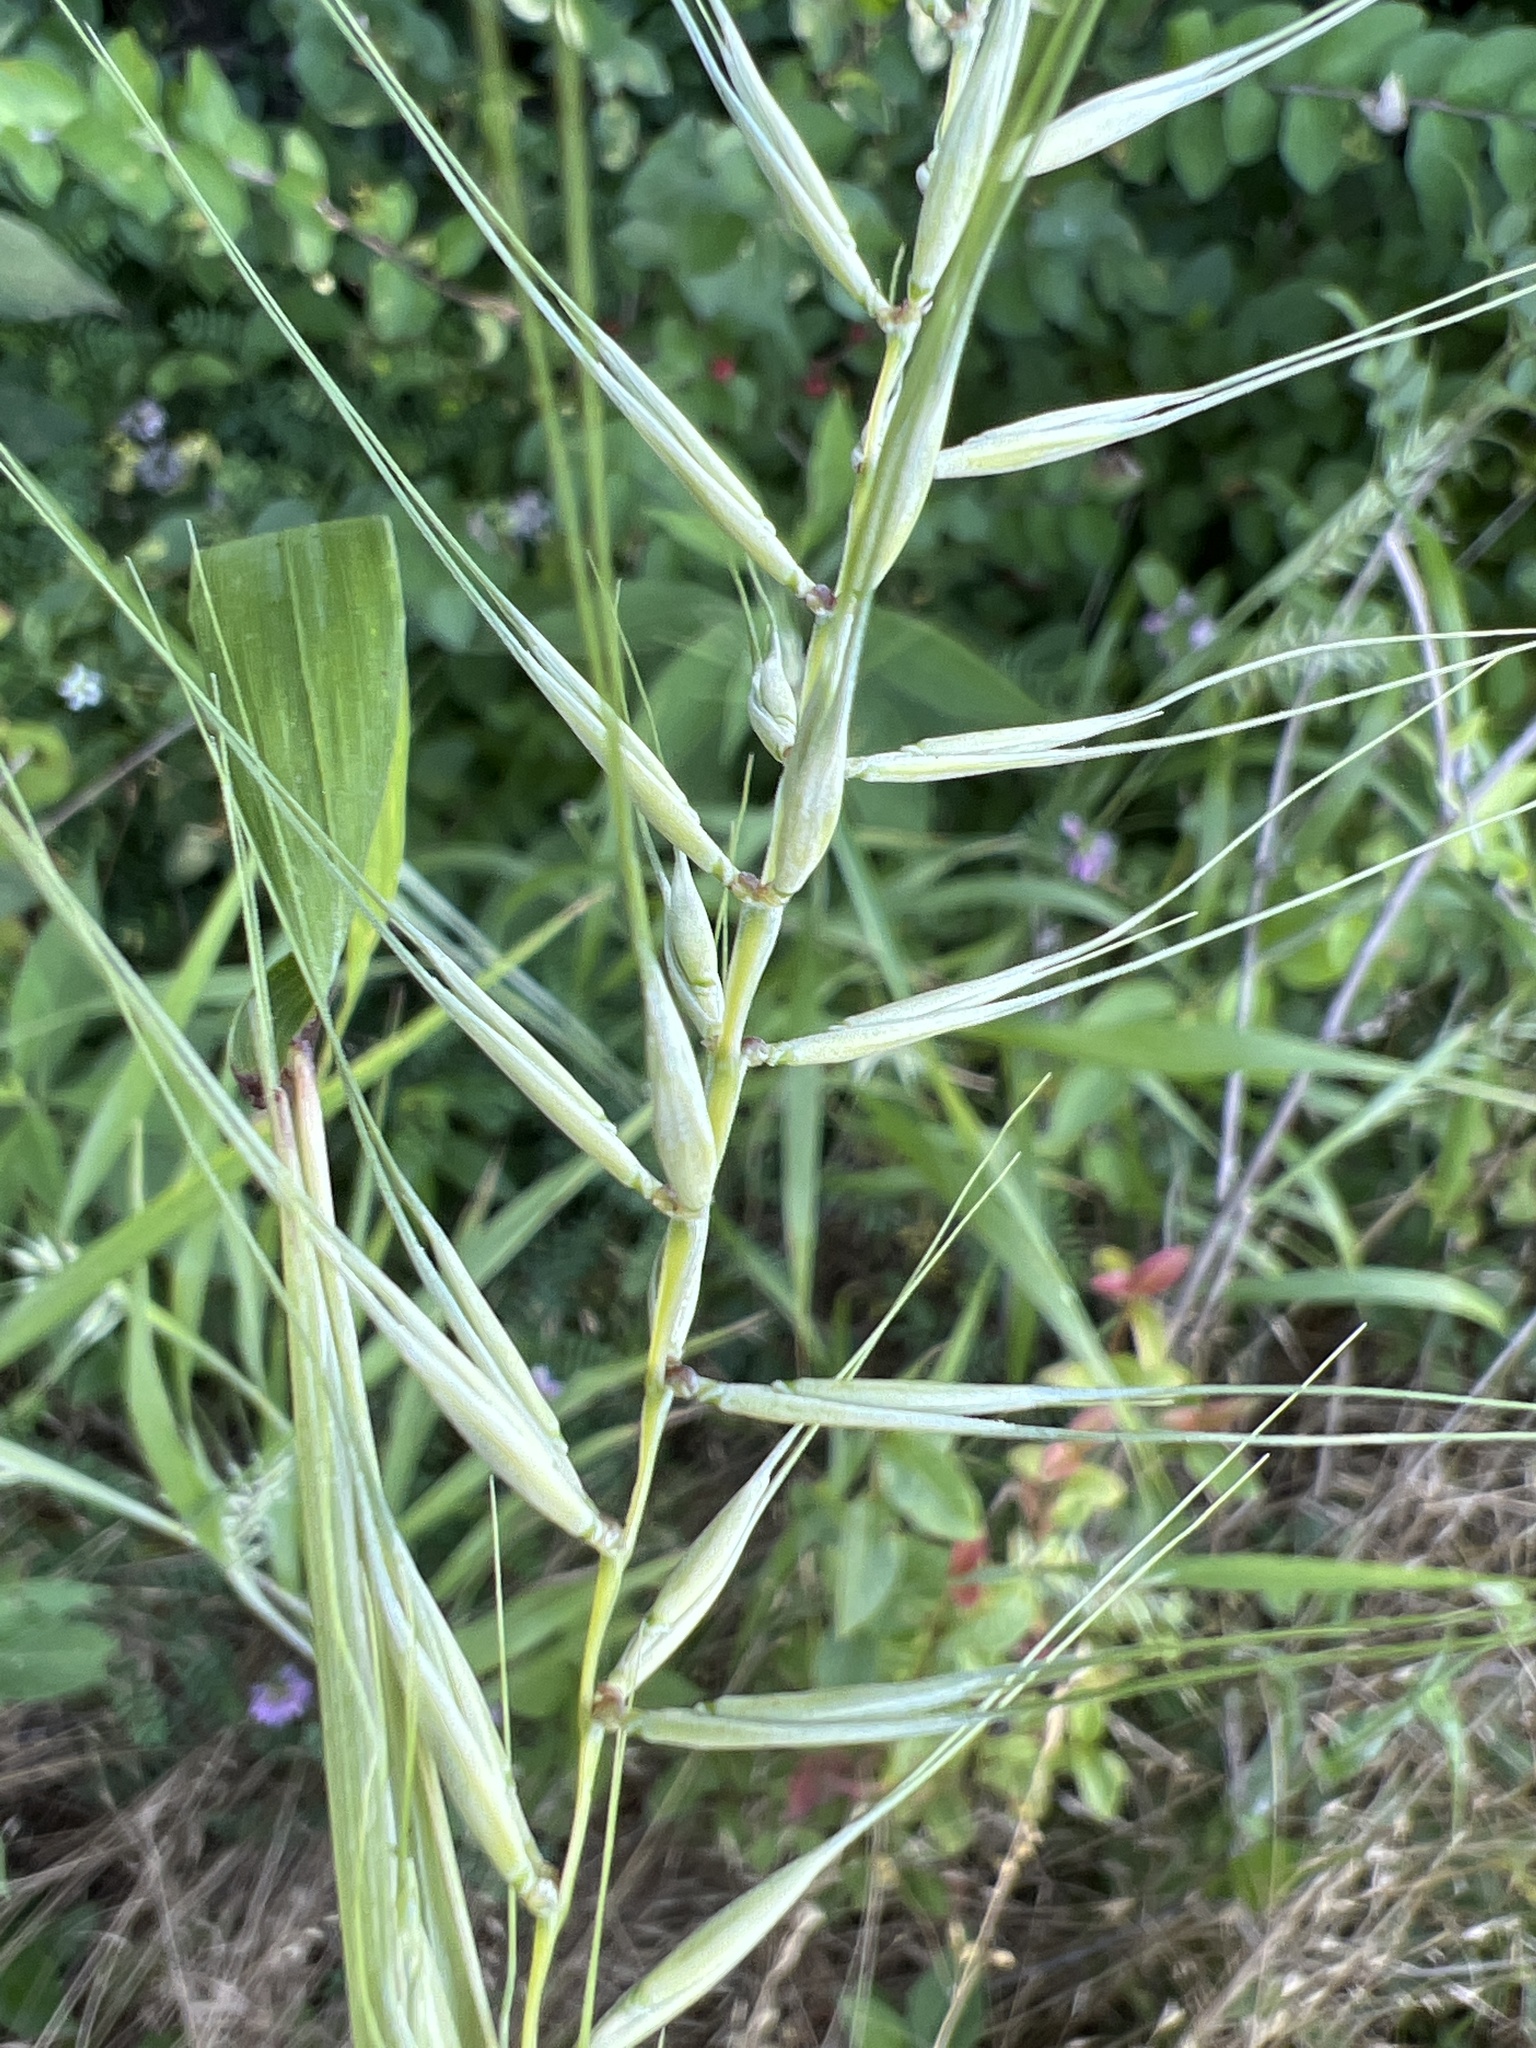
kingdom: Plantae
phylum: Tracheophyta
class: Liliopsida
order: Poales
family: Poaceae
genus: Elymus
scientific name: Elymus hystrix
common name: Bottlebrush grass
